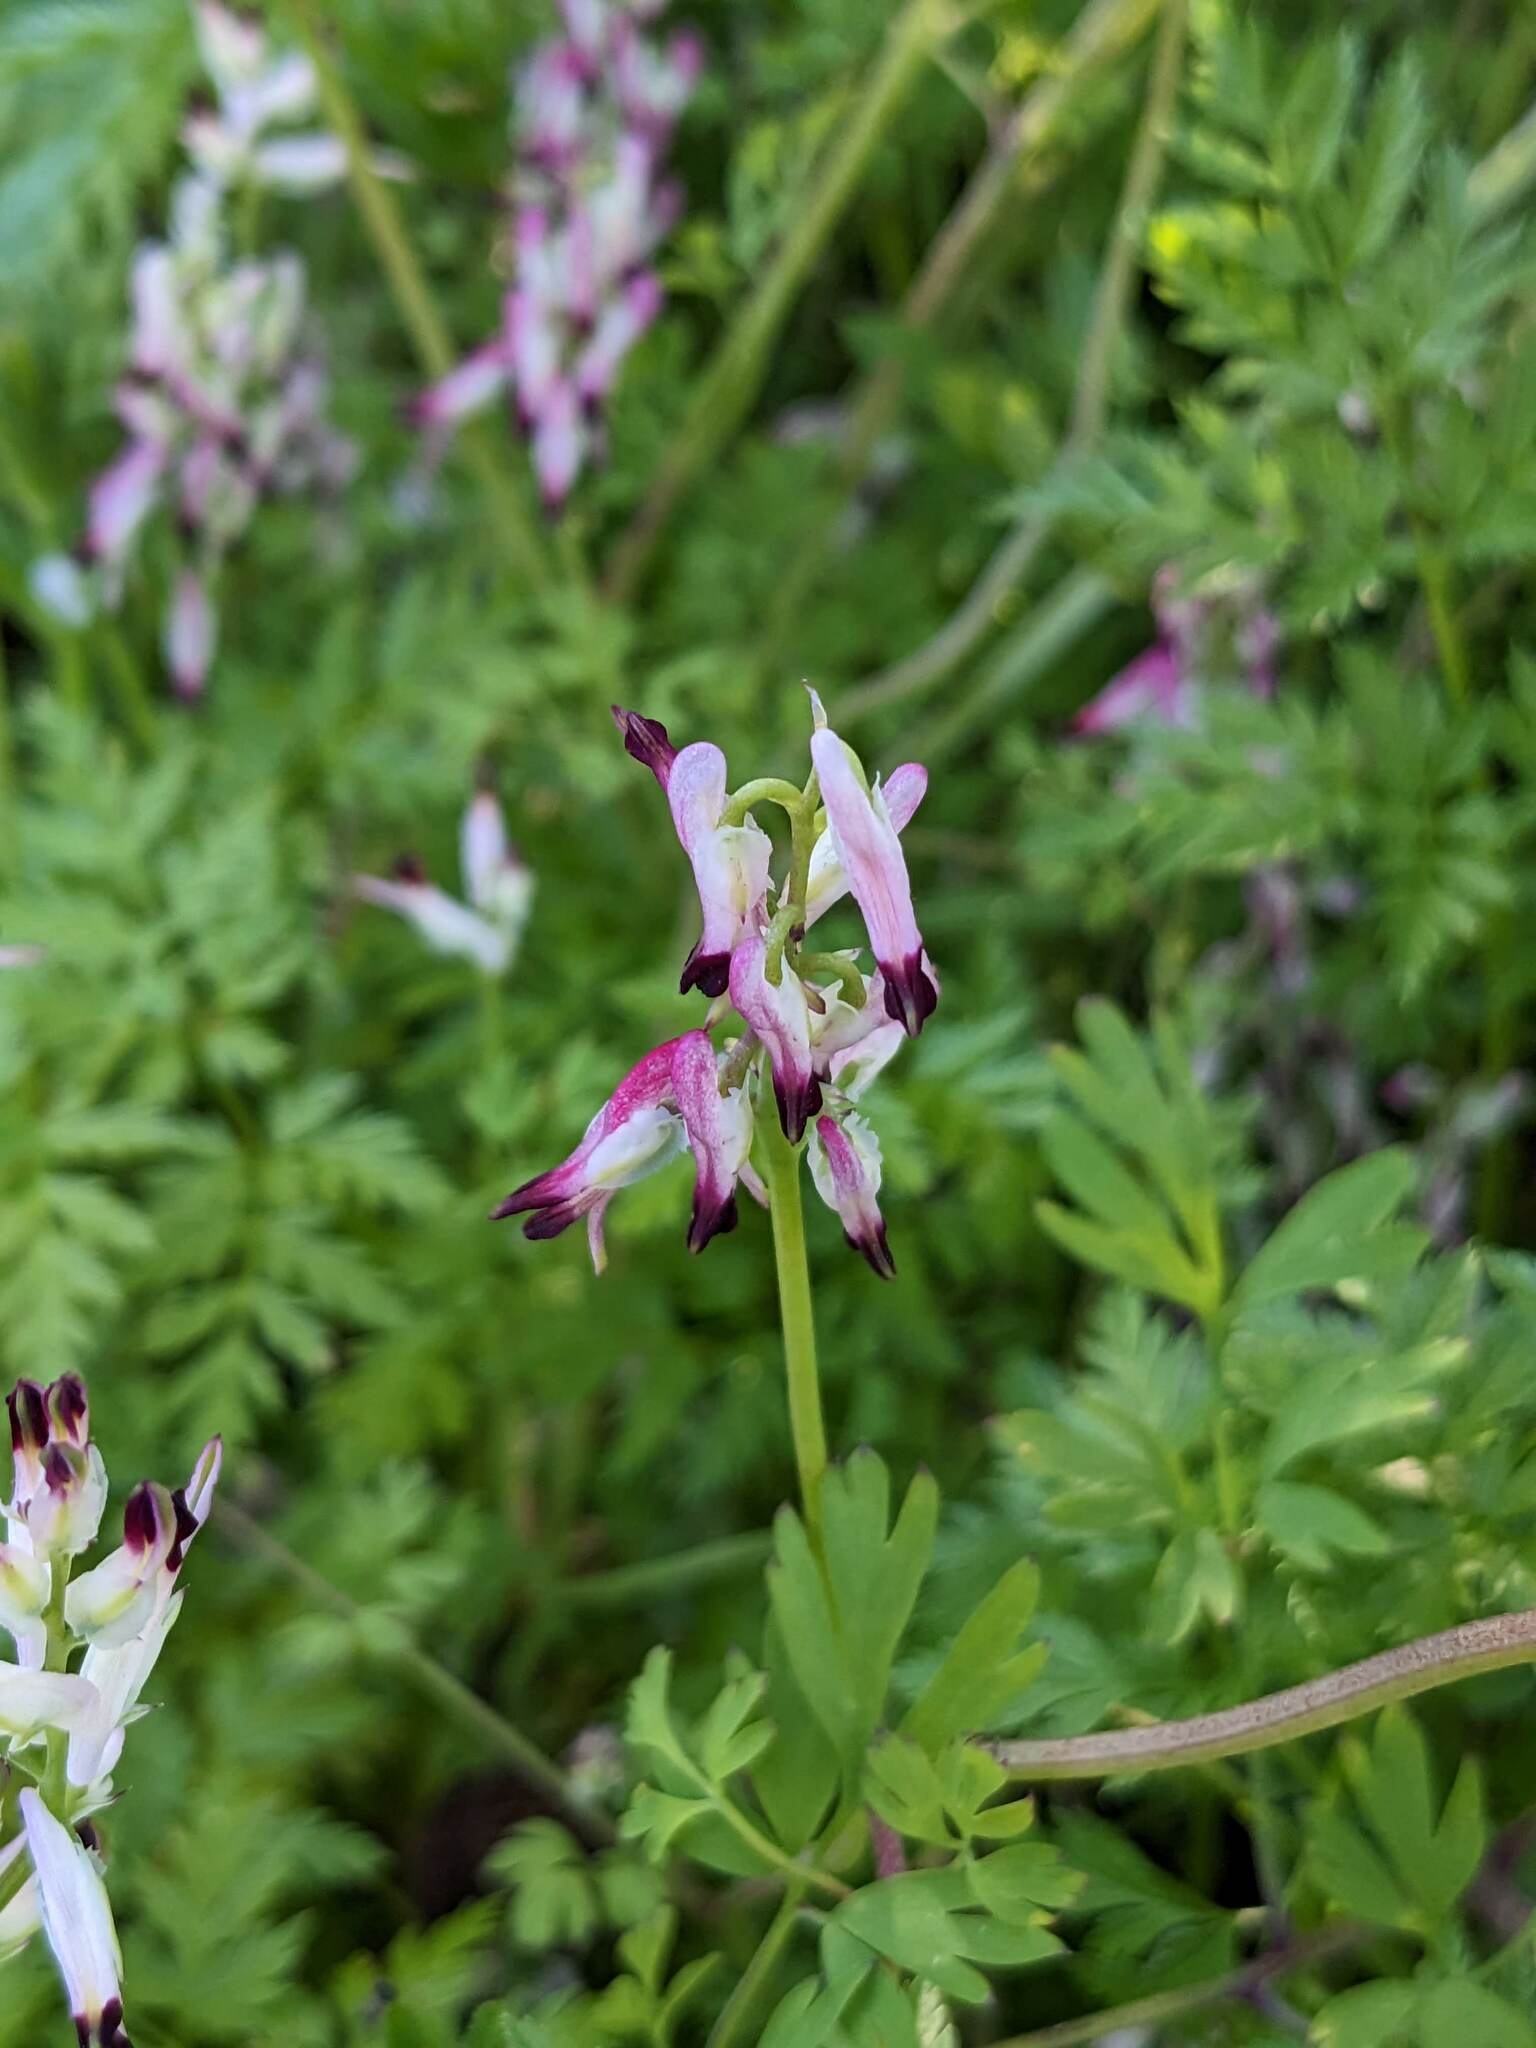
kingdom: Plantae
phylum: Tracheophyta
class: Magnoliopsida
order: Ranunculales
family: Papaveraceae
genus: Fumaria
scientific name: Fumaria capreolata
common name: White ramping-fumitory
